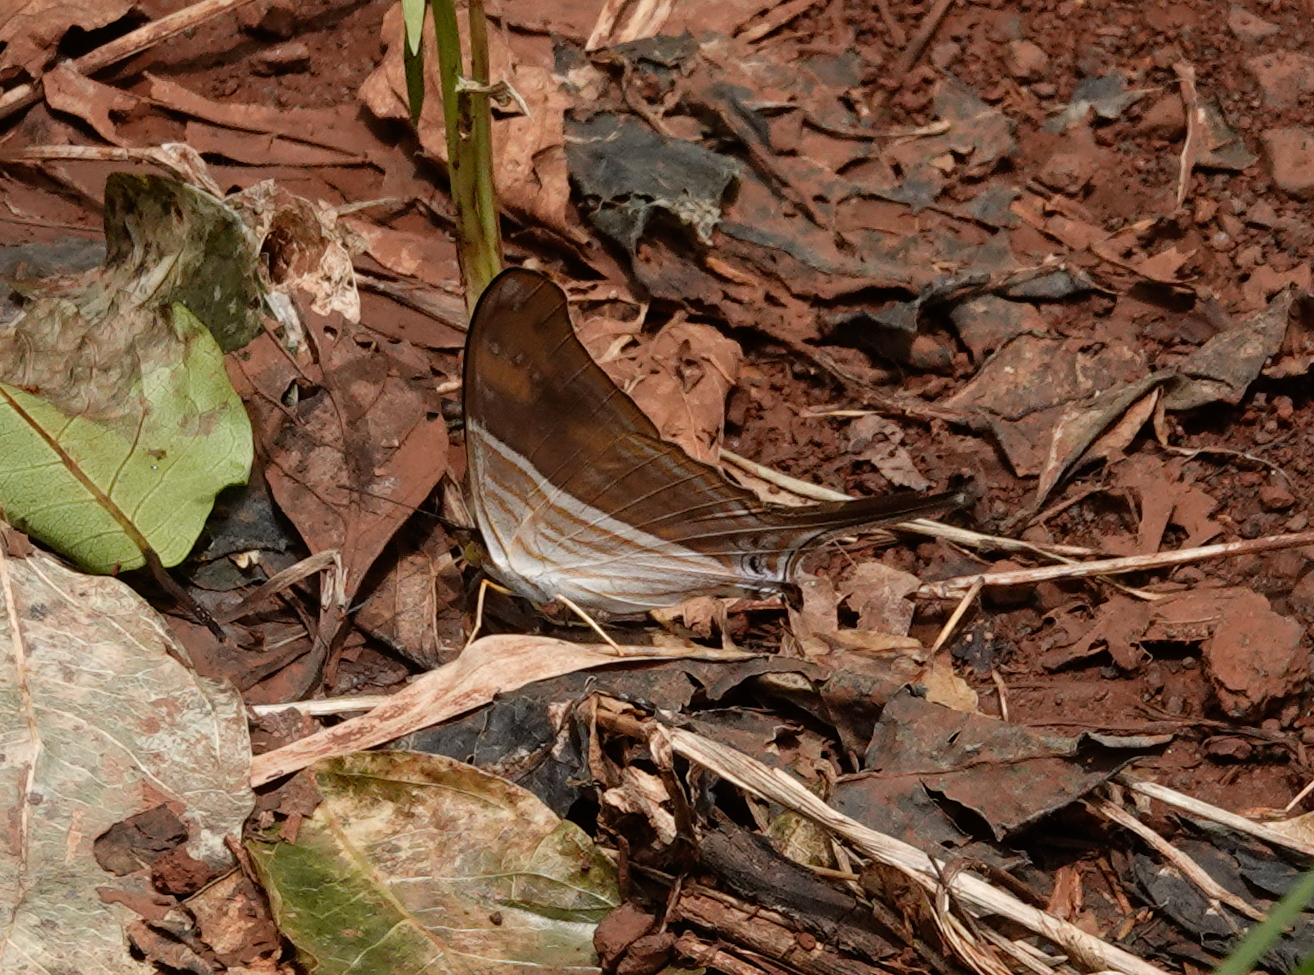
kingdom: Animalia
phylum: Arthropoda
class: Insecta
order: Lepidoptera
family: Nymphalidae
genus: Marpesia
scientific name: Marpesia chiron
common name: Many-banded daggerwing
